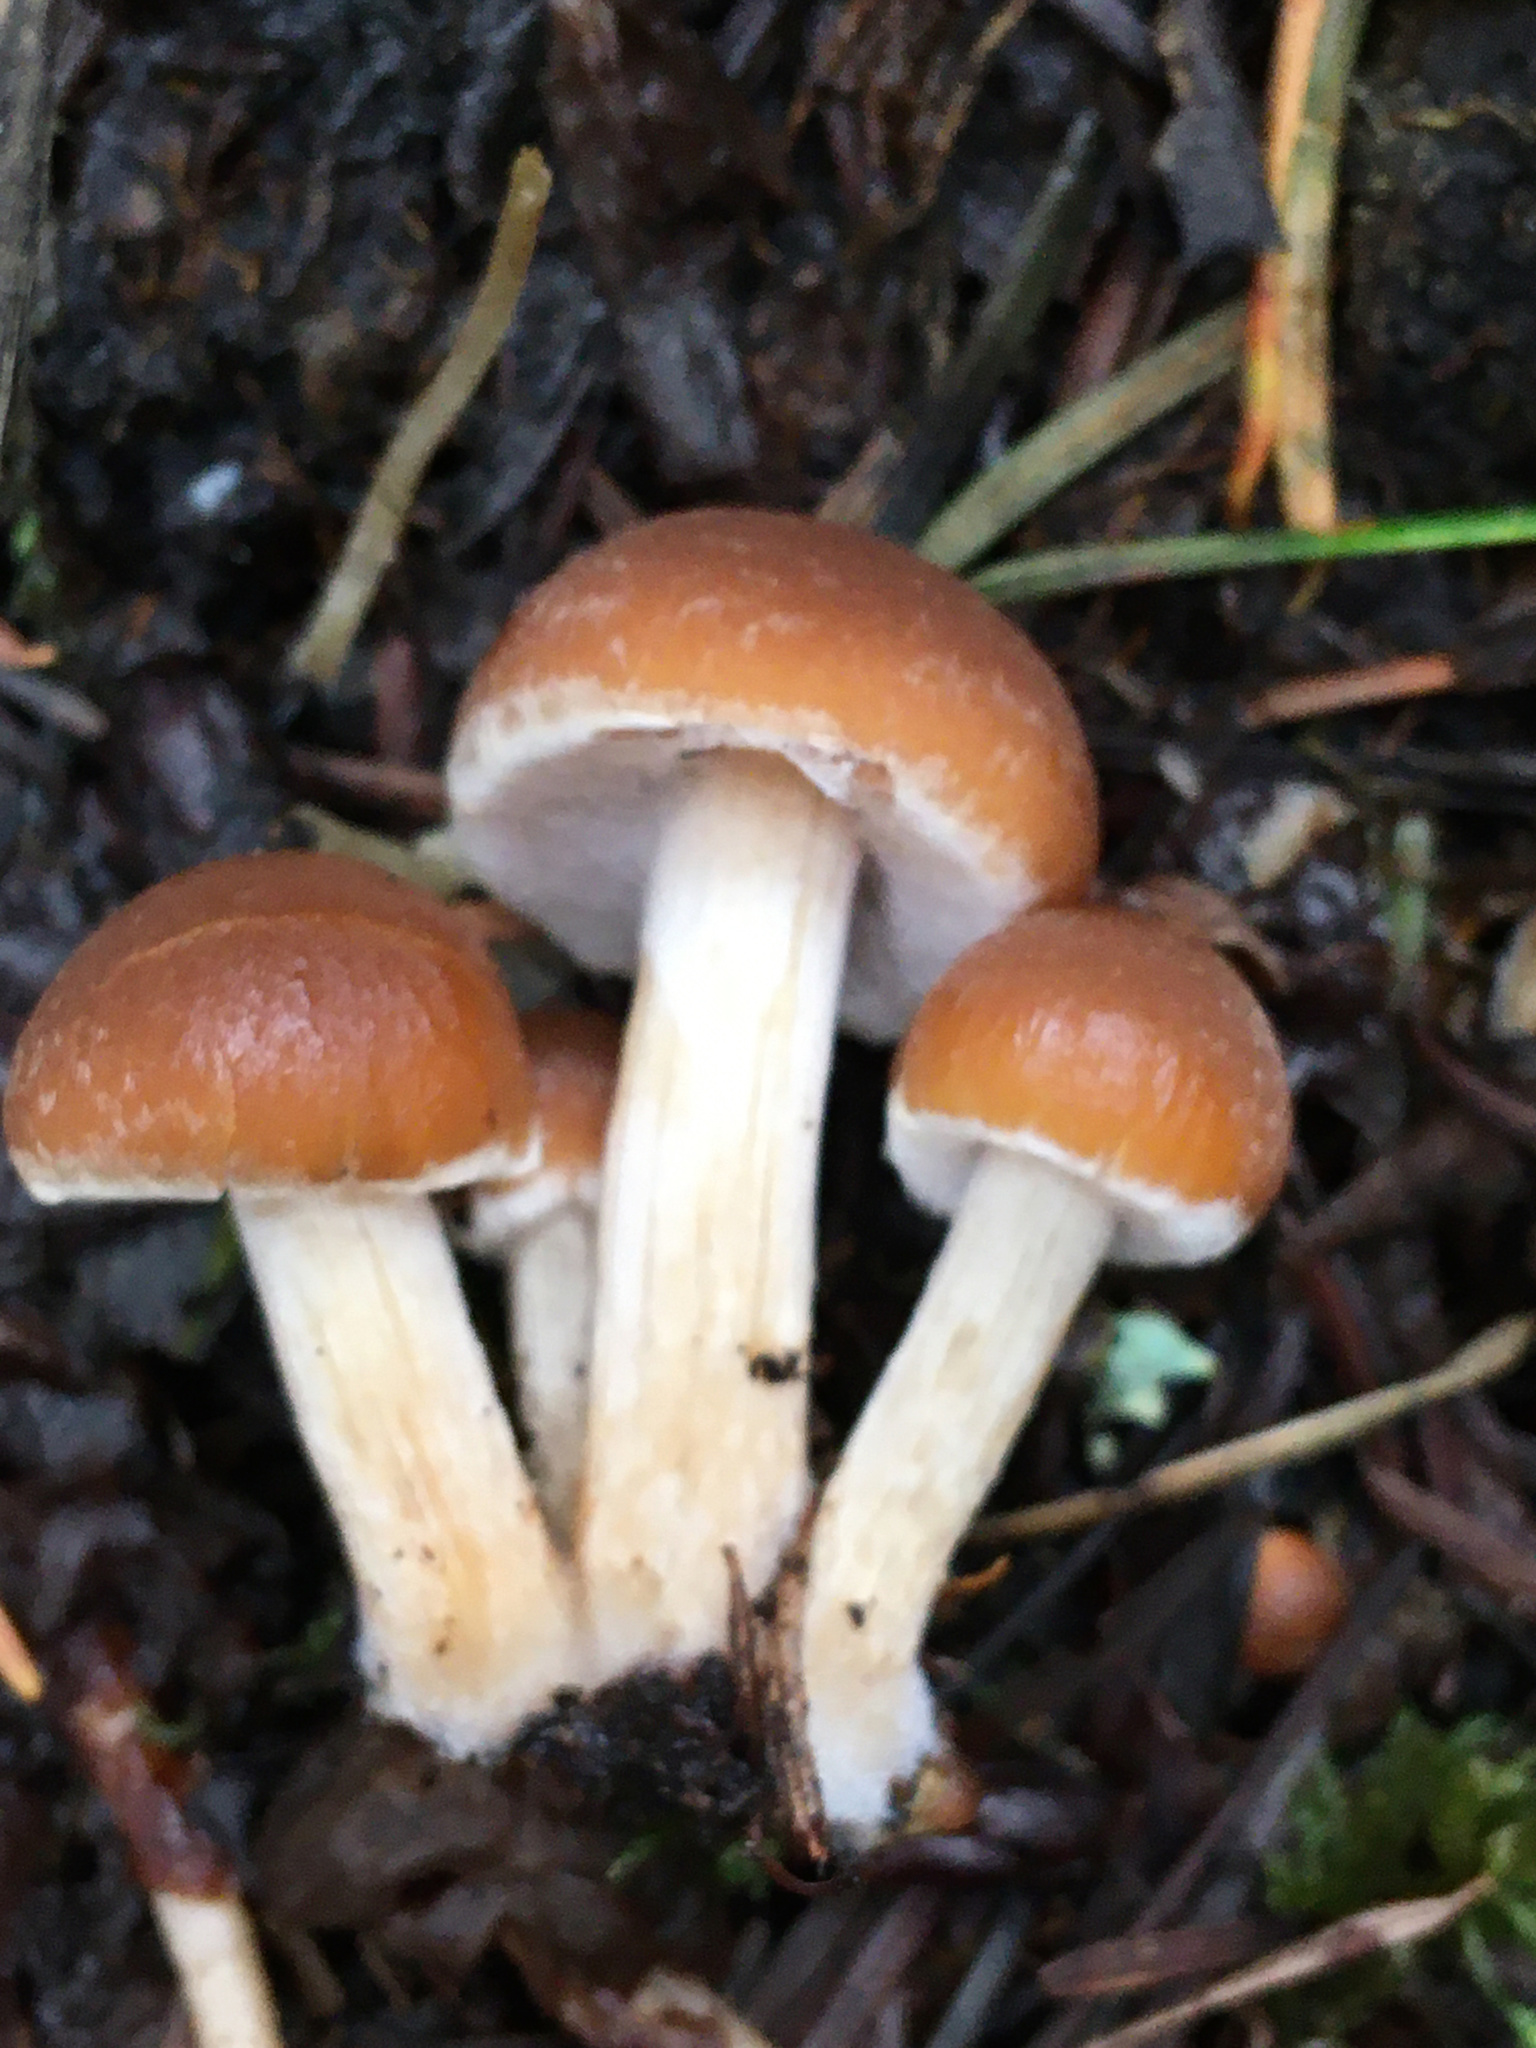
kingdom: Fungi
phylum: Basidiomycota
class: Agaricomycetes
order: Agaricales
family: Psathyrellaceae
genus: Psathyrella
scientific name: Psathyrella piluliformis
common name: Common stump brittlestem
